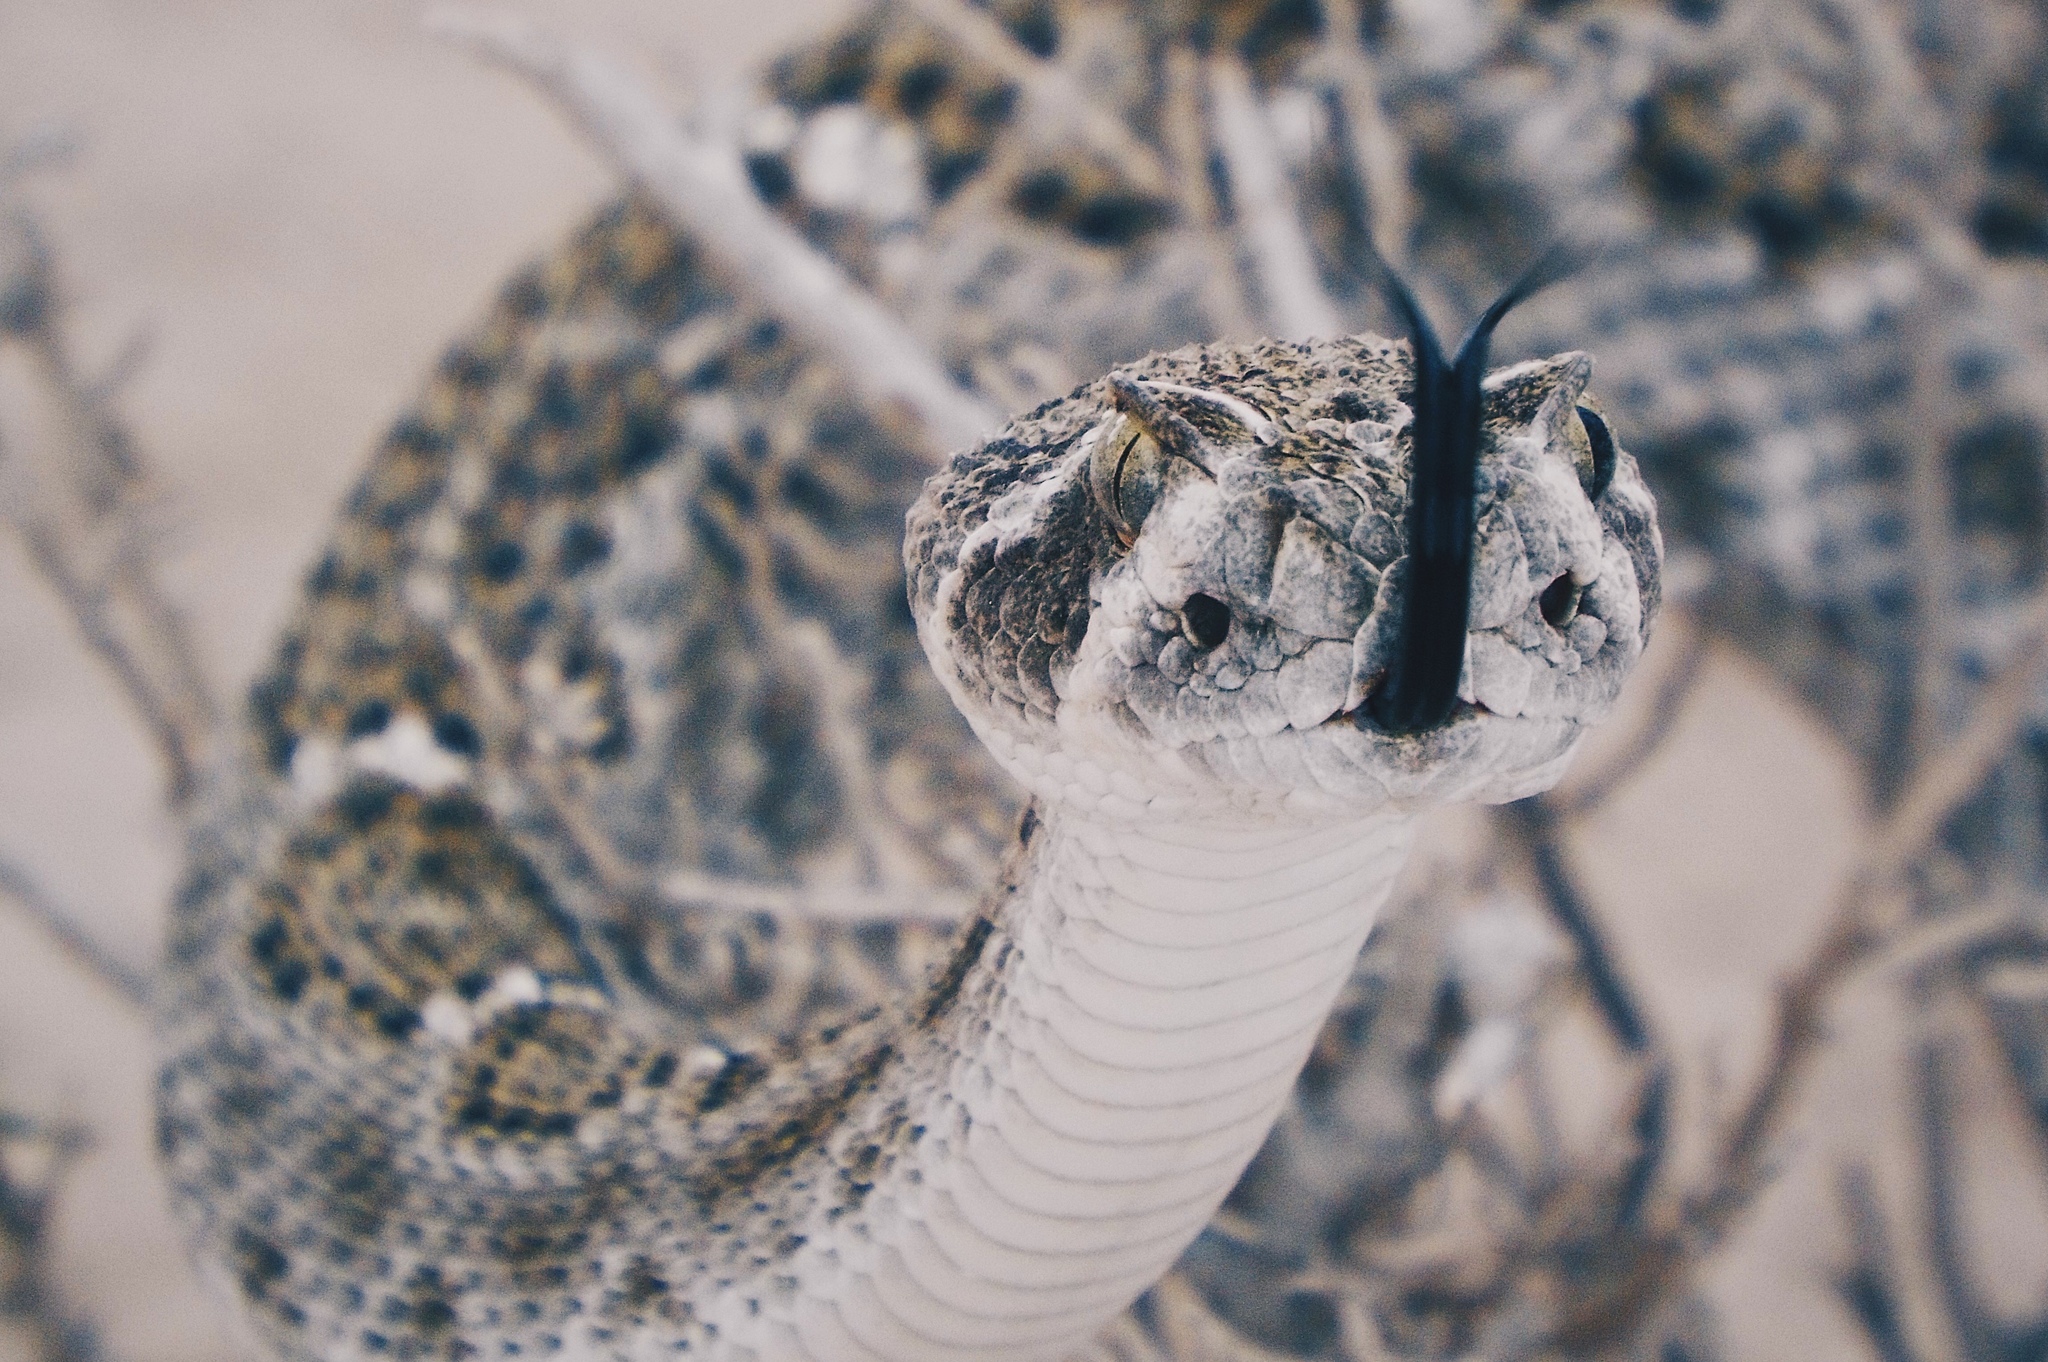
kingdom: Animalia
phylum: Chordata
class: Squamata
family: Viperidae
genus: Crotalus
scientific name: Crotalus atrox
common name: Western diamond-backed rattlesnake
